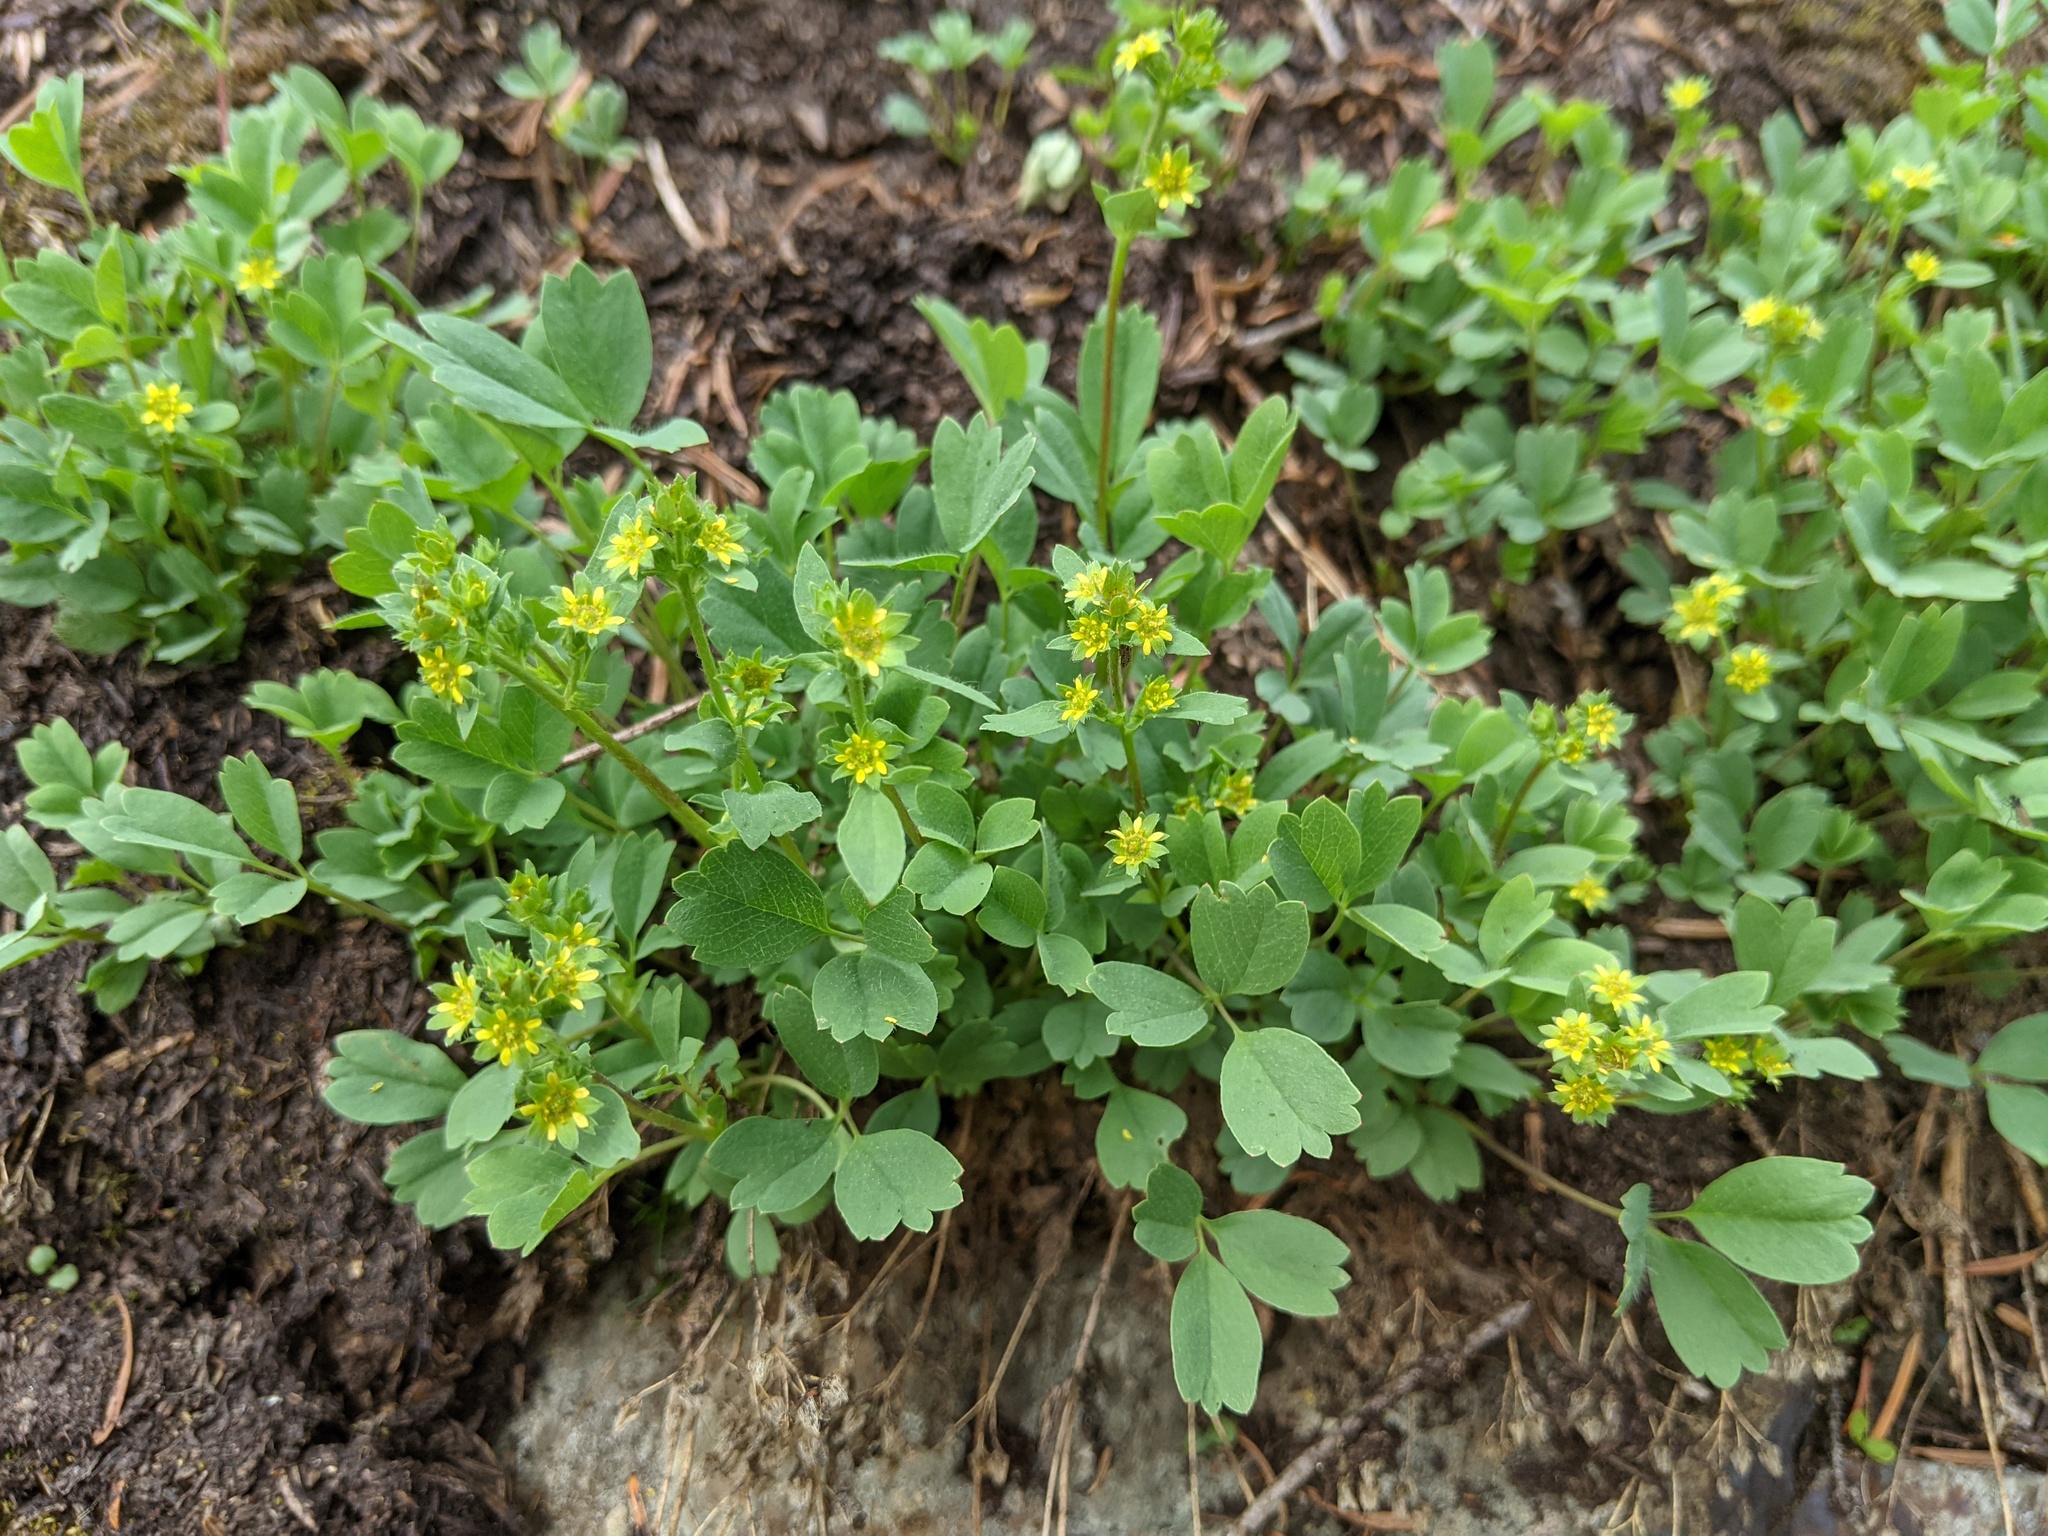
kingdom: Plantae
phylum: Tracheophyta
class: Magnoliopsida
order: Rosales
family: Rosaceae
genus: Sibbaldia
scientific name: Sibbaldia procumbens
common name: Creeping sibbaldia
